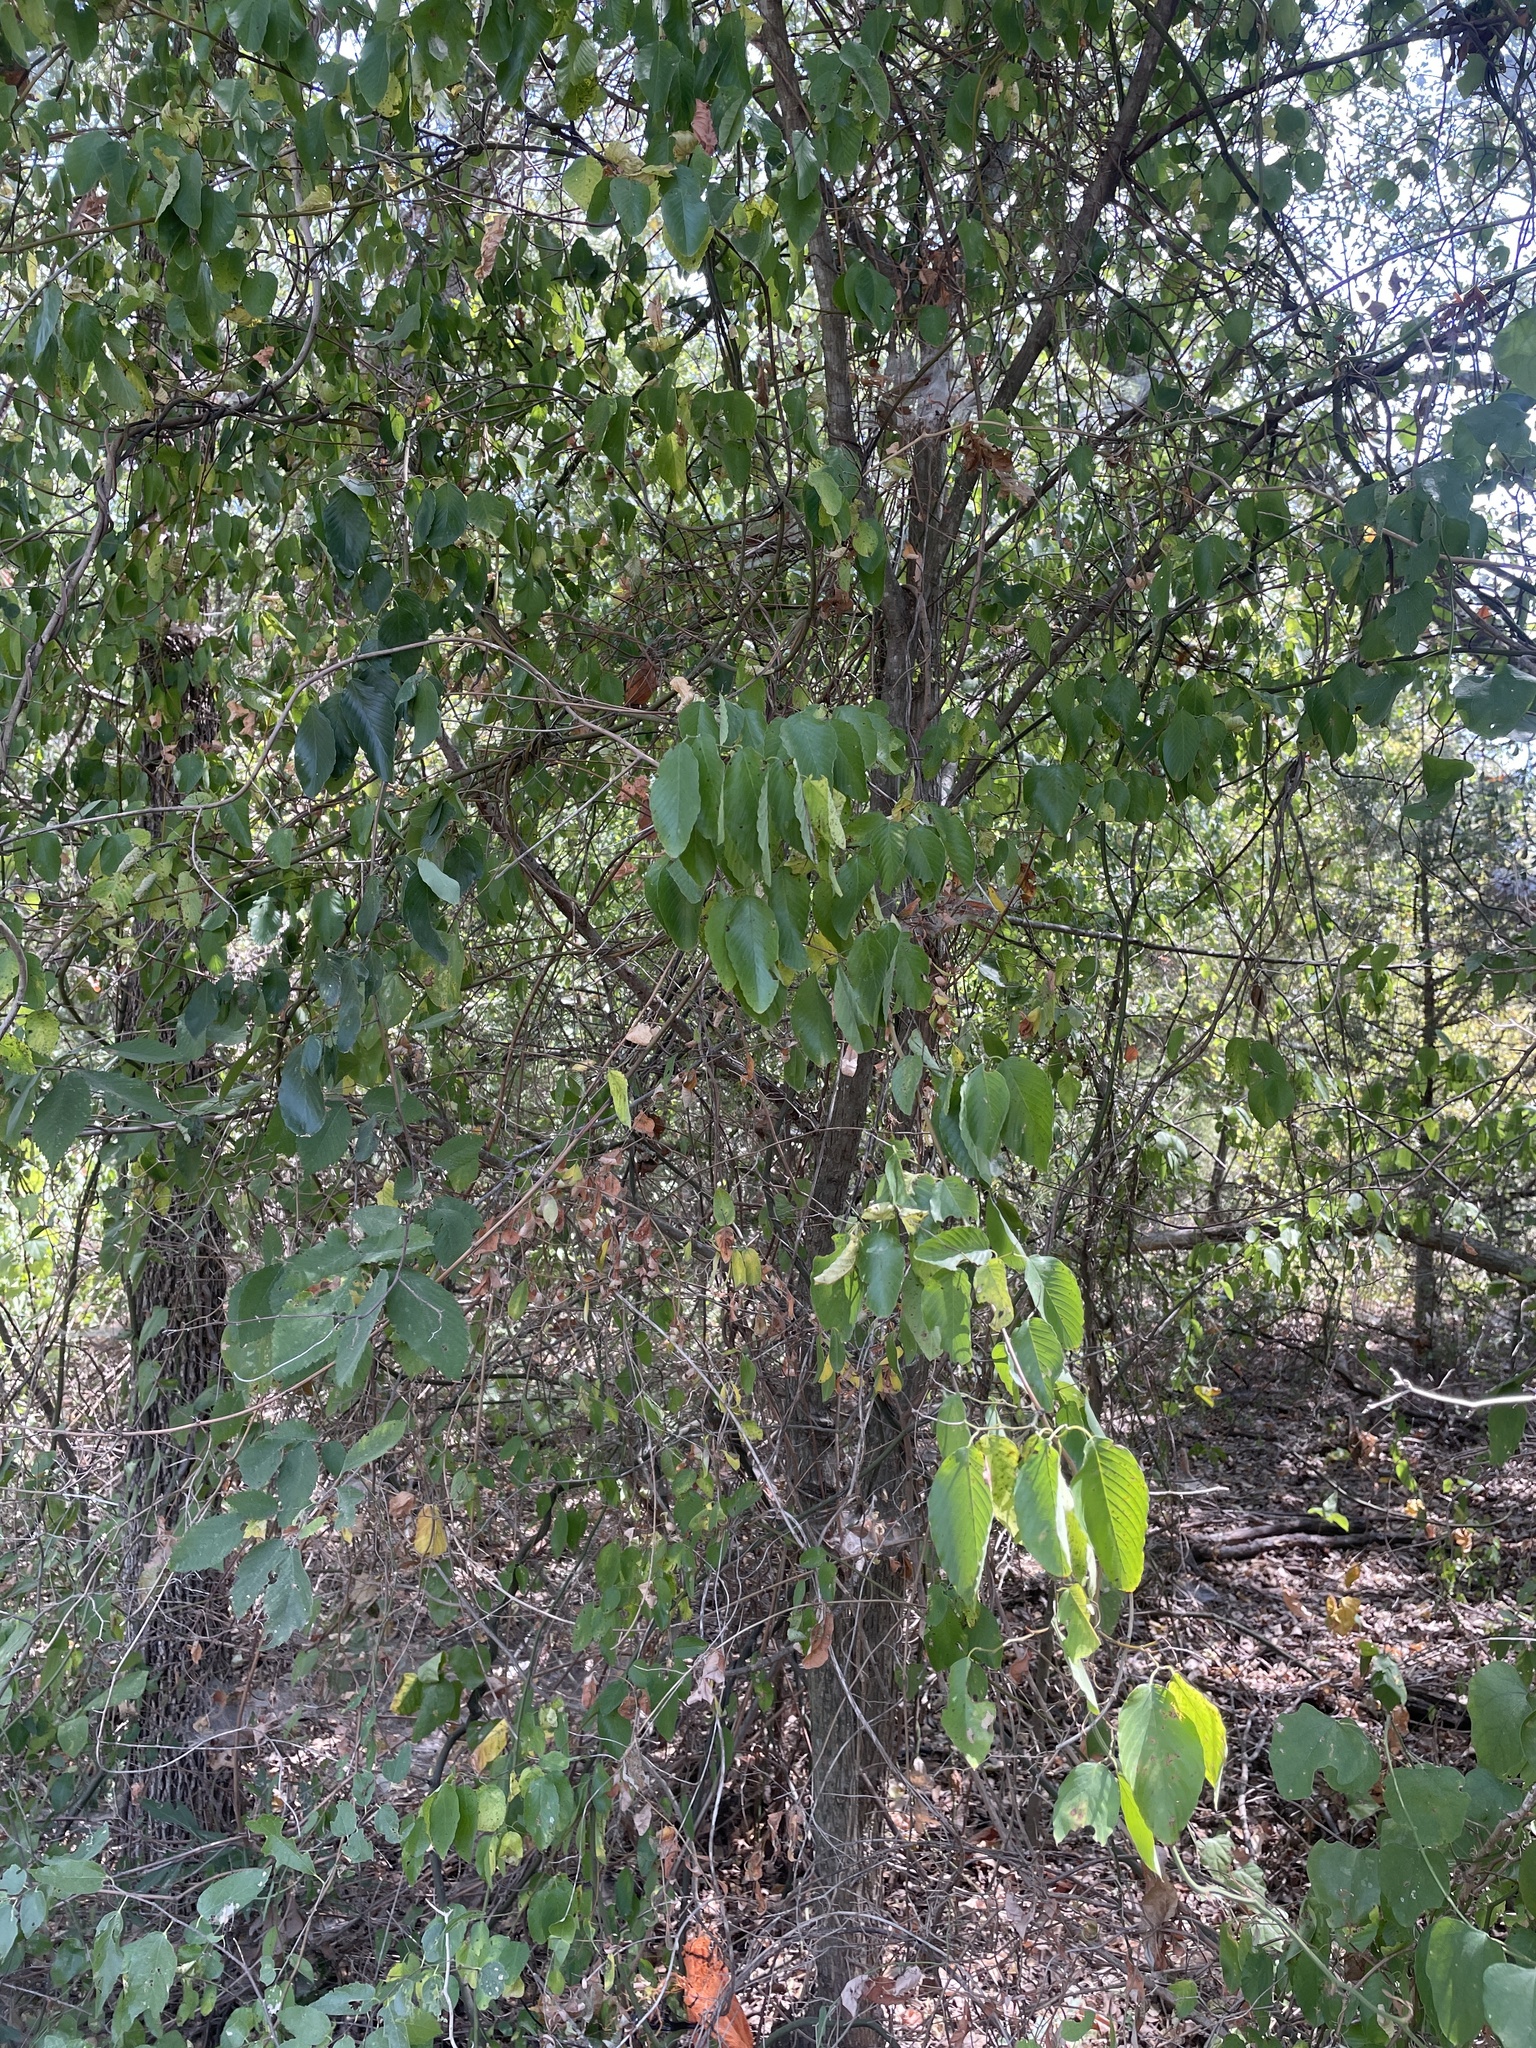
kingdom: Plantae
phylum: Tracheophyta
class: Magnoliopsida
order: Rosales
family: Rhamnaceae
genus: Berchemia
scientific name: Berchemia scandens
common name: Supplejack
